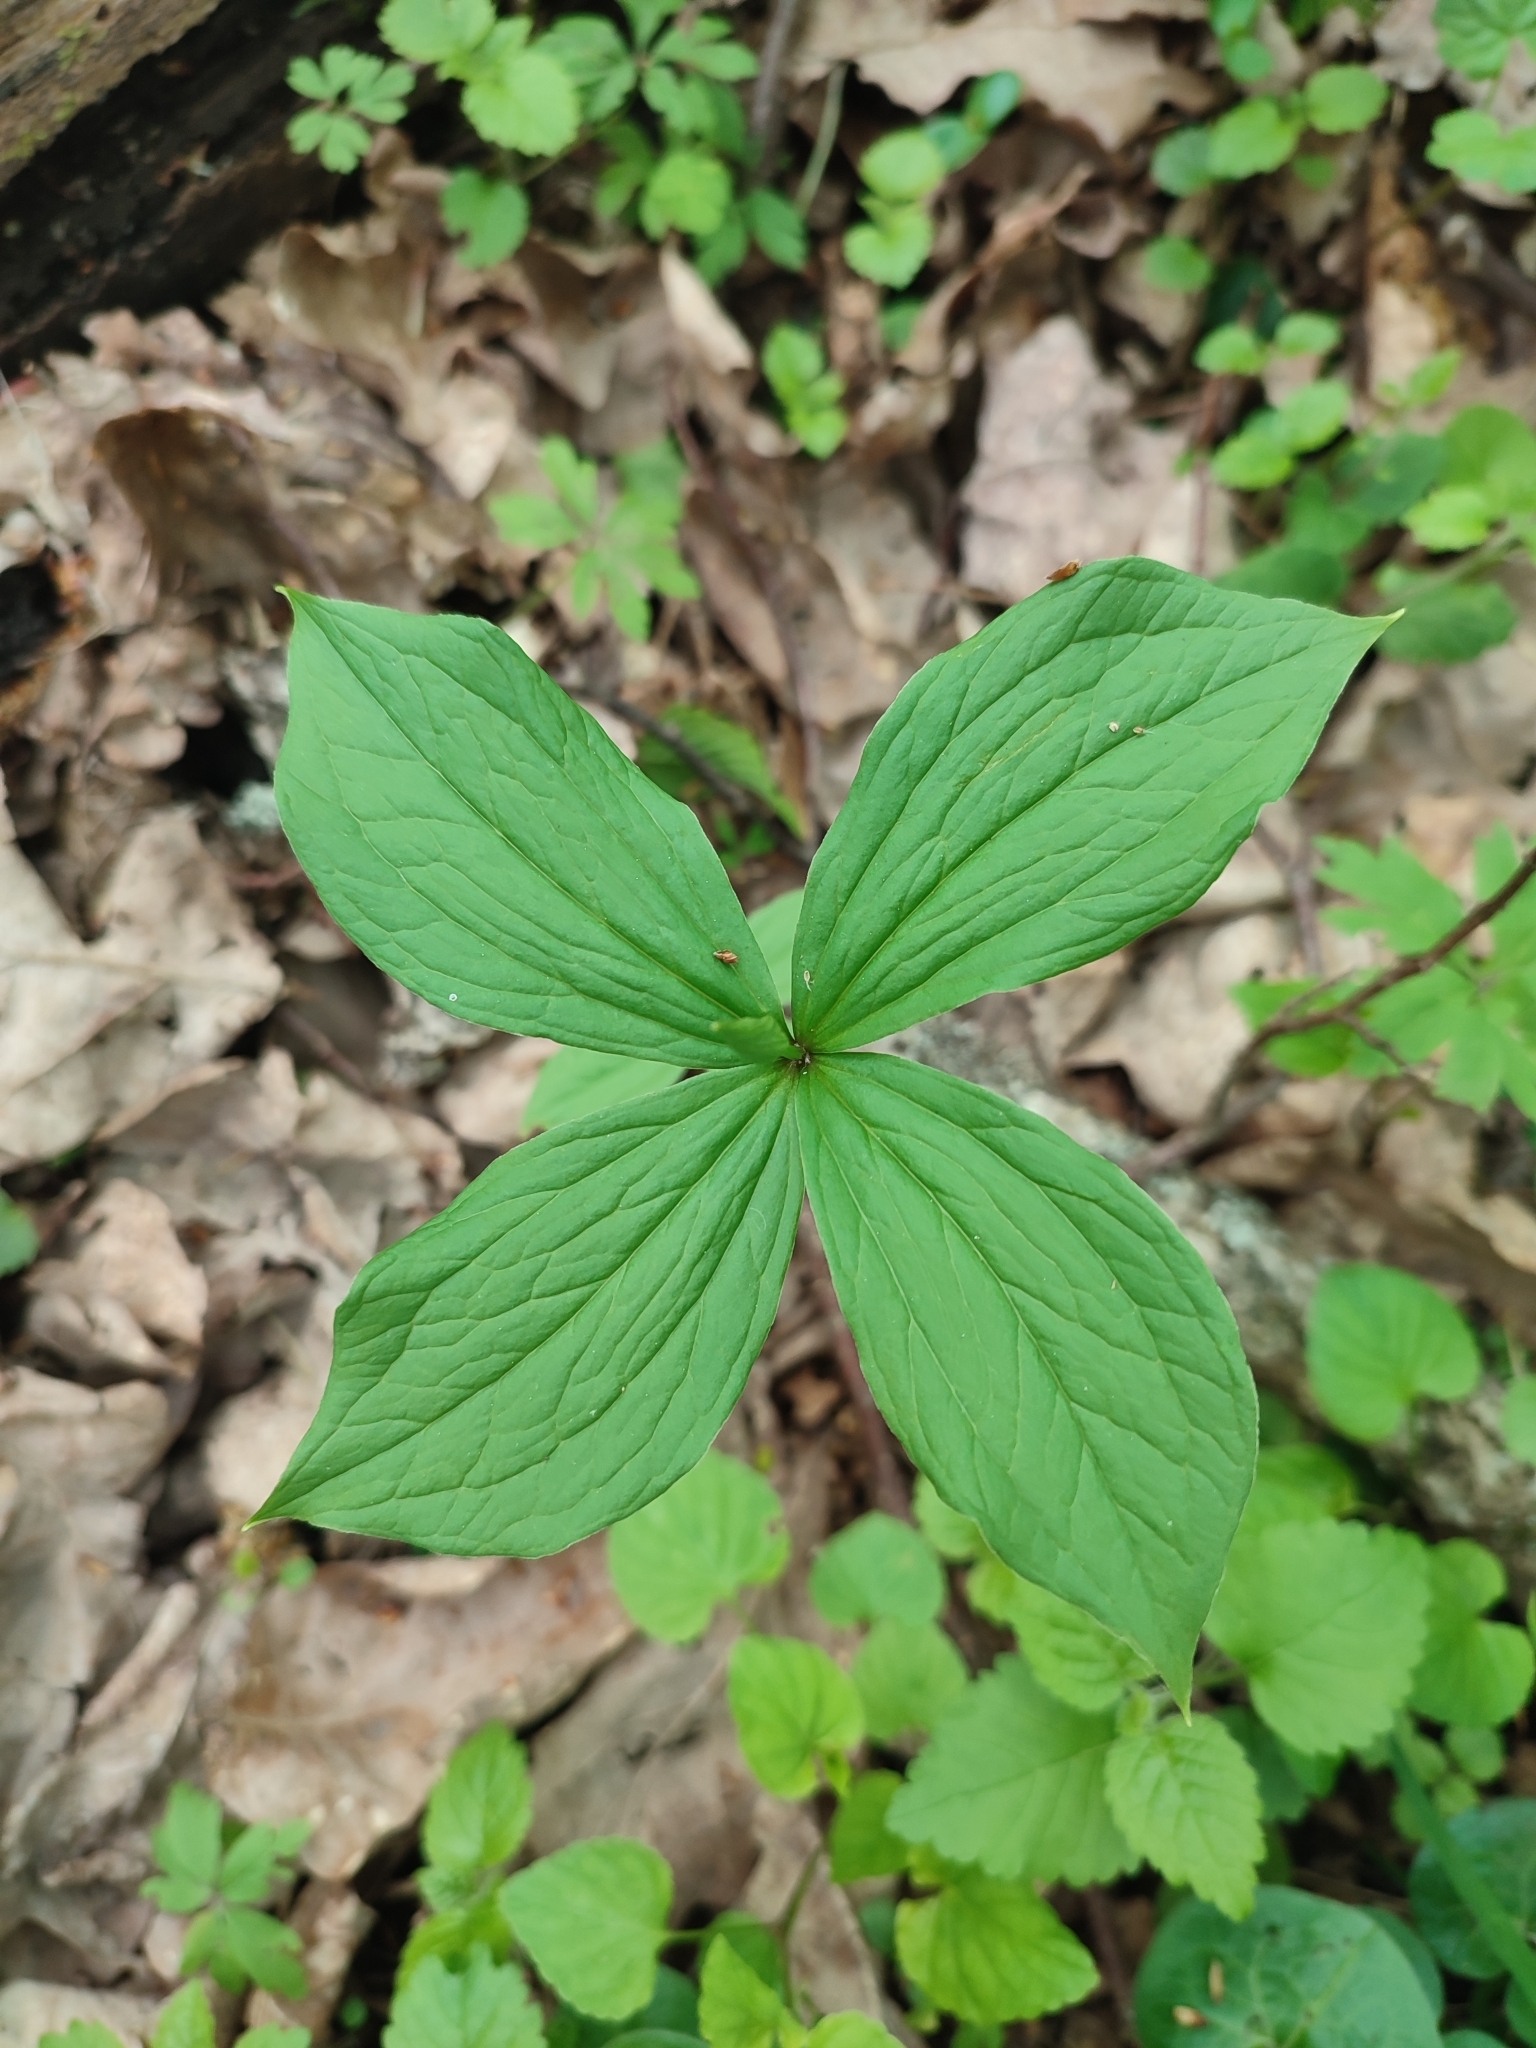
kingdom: Plantae
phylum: Tracheophyta
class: Liliopsida
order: Liliales
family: Melanthiaceae
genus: Paris
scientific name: Paris quadrifolia
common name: Herb-paris
